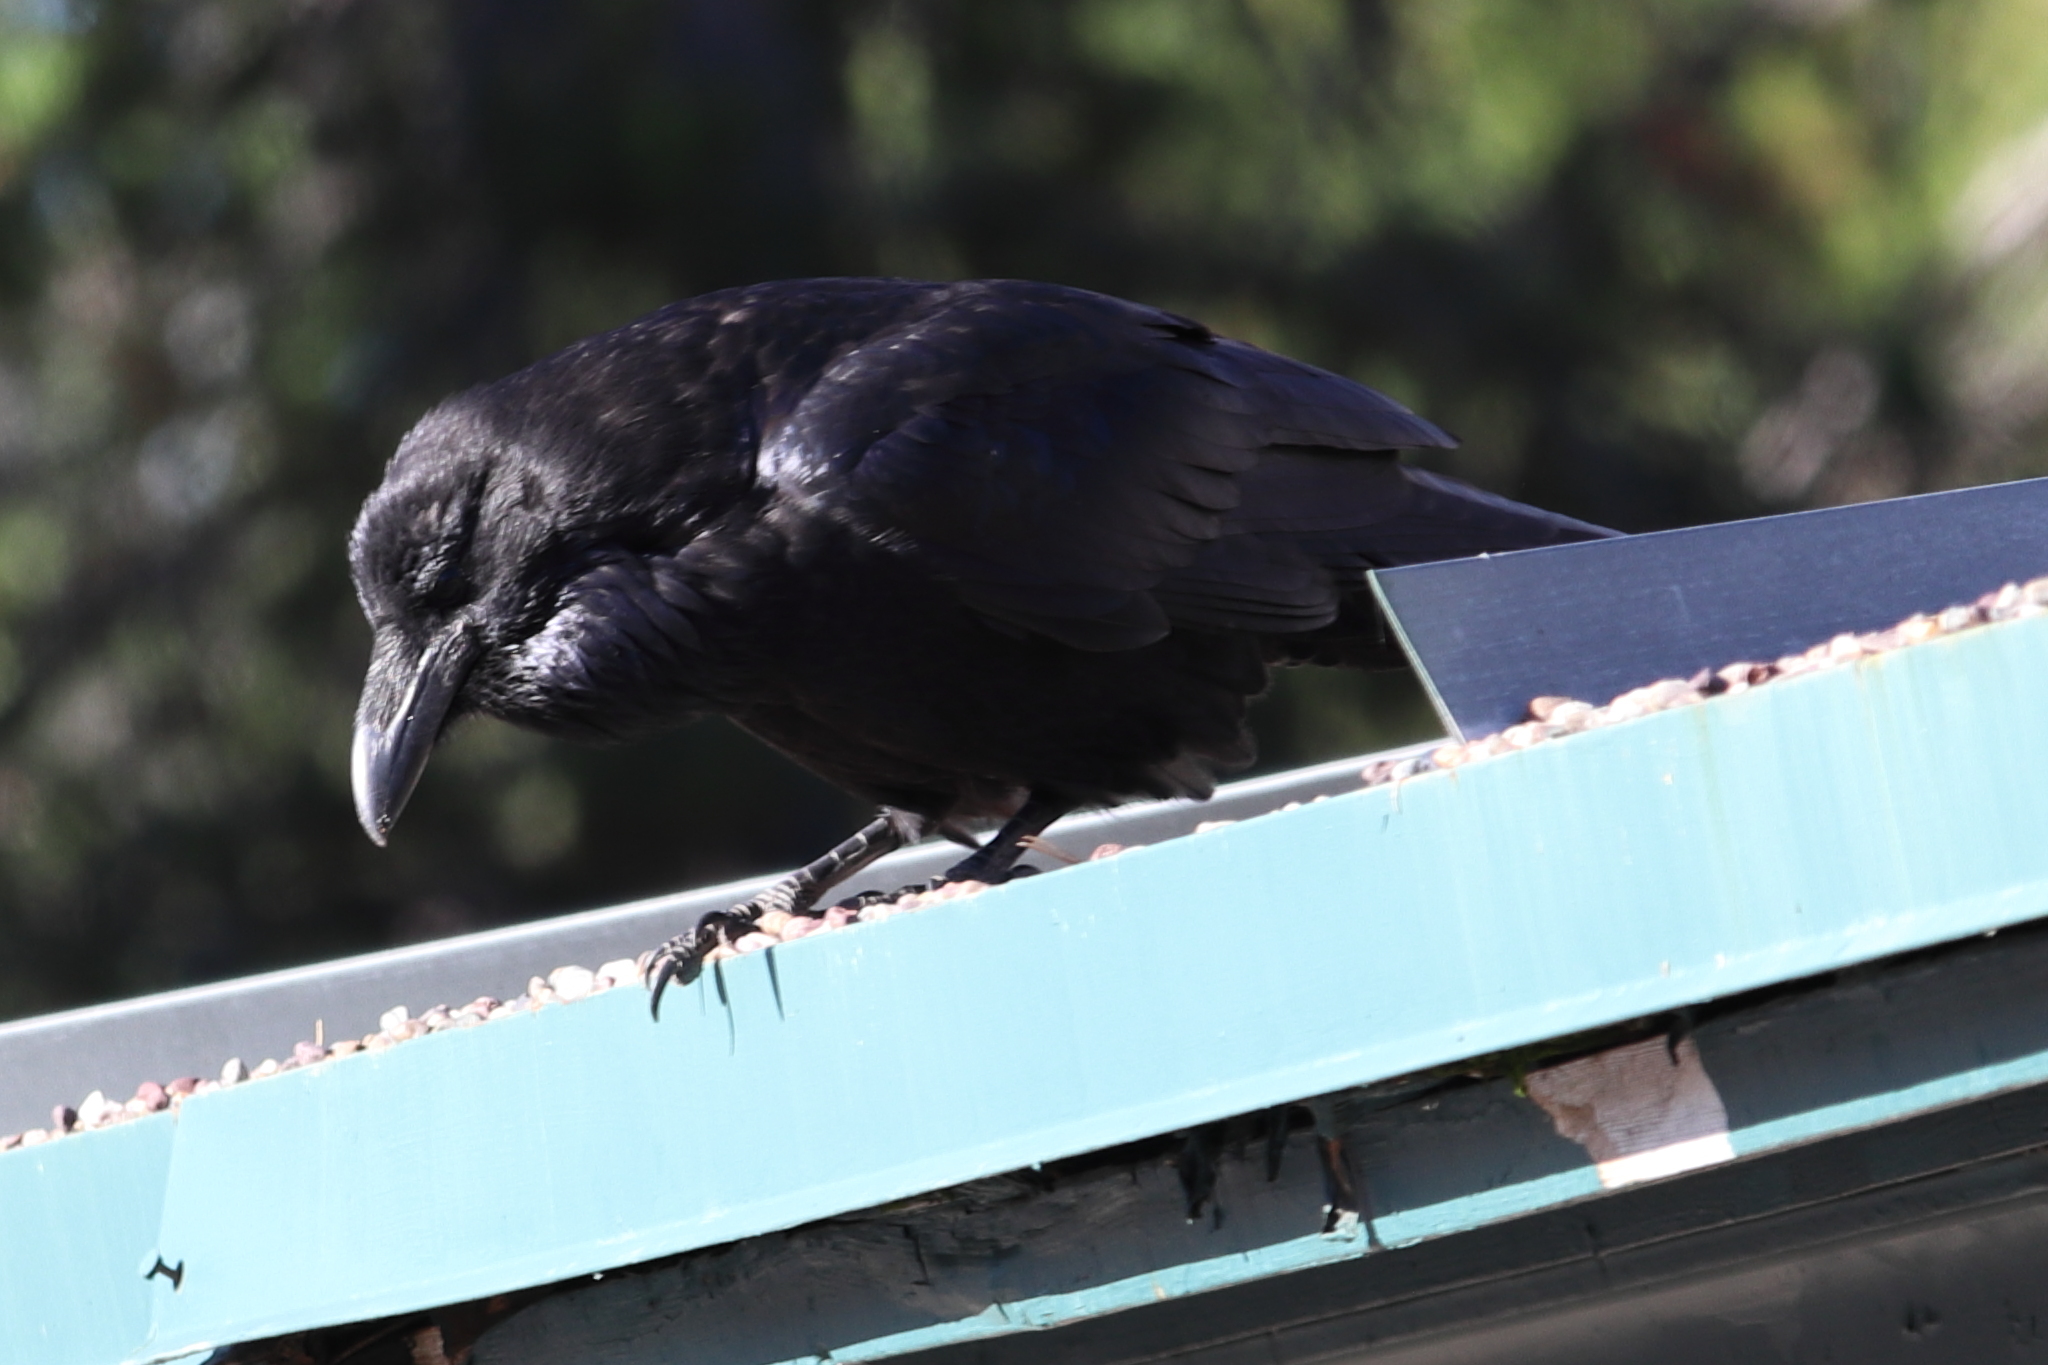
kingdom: Animalia
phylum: Chordata
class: Aves
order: Passeriformes
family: Corvidae
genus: Corvus
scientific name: Corvus corax
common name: Common raven
